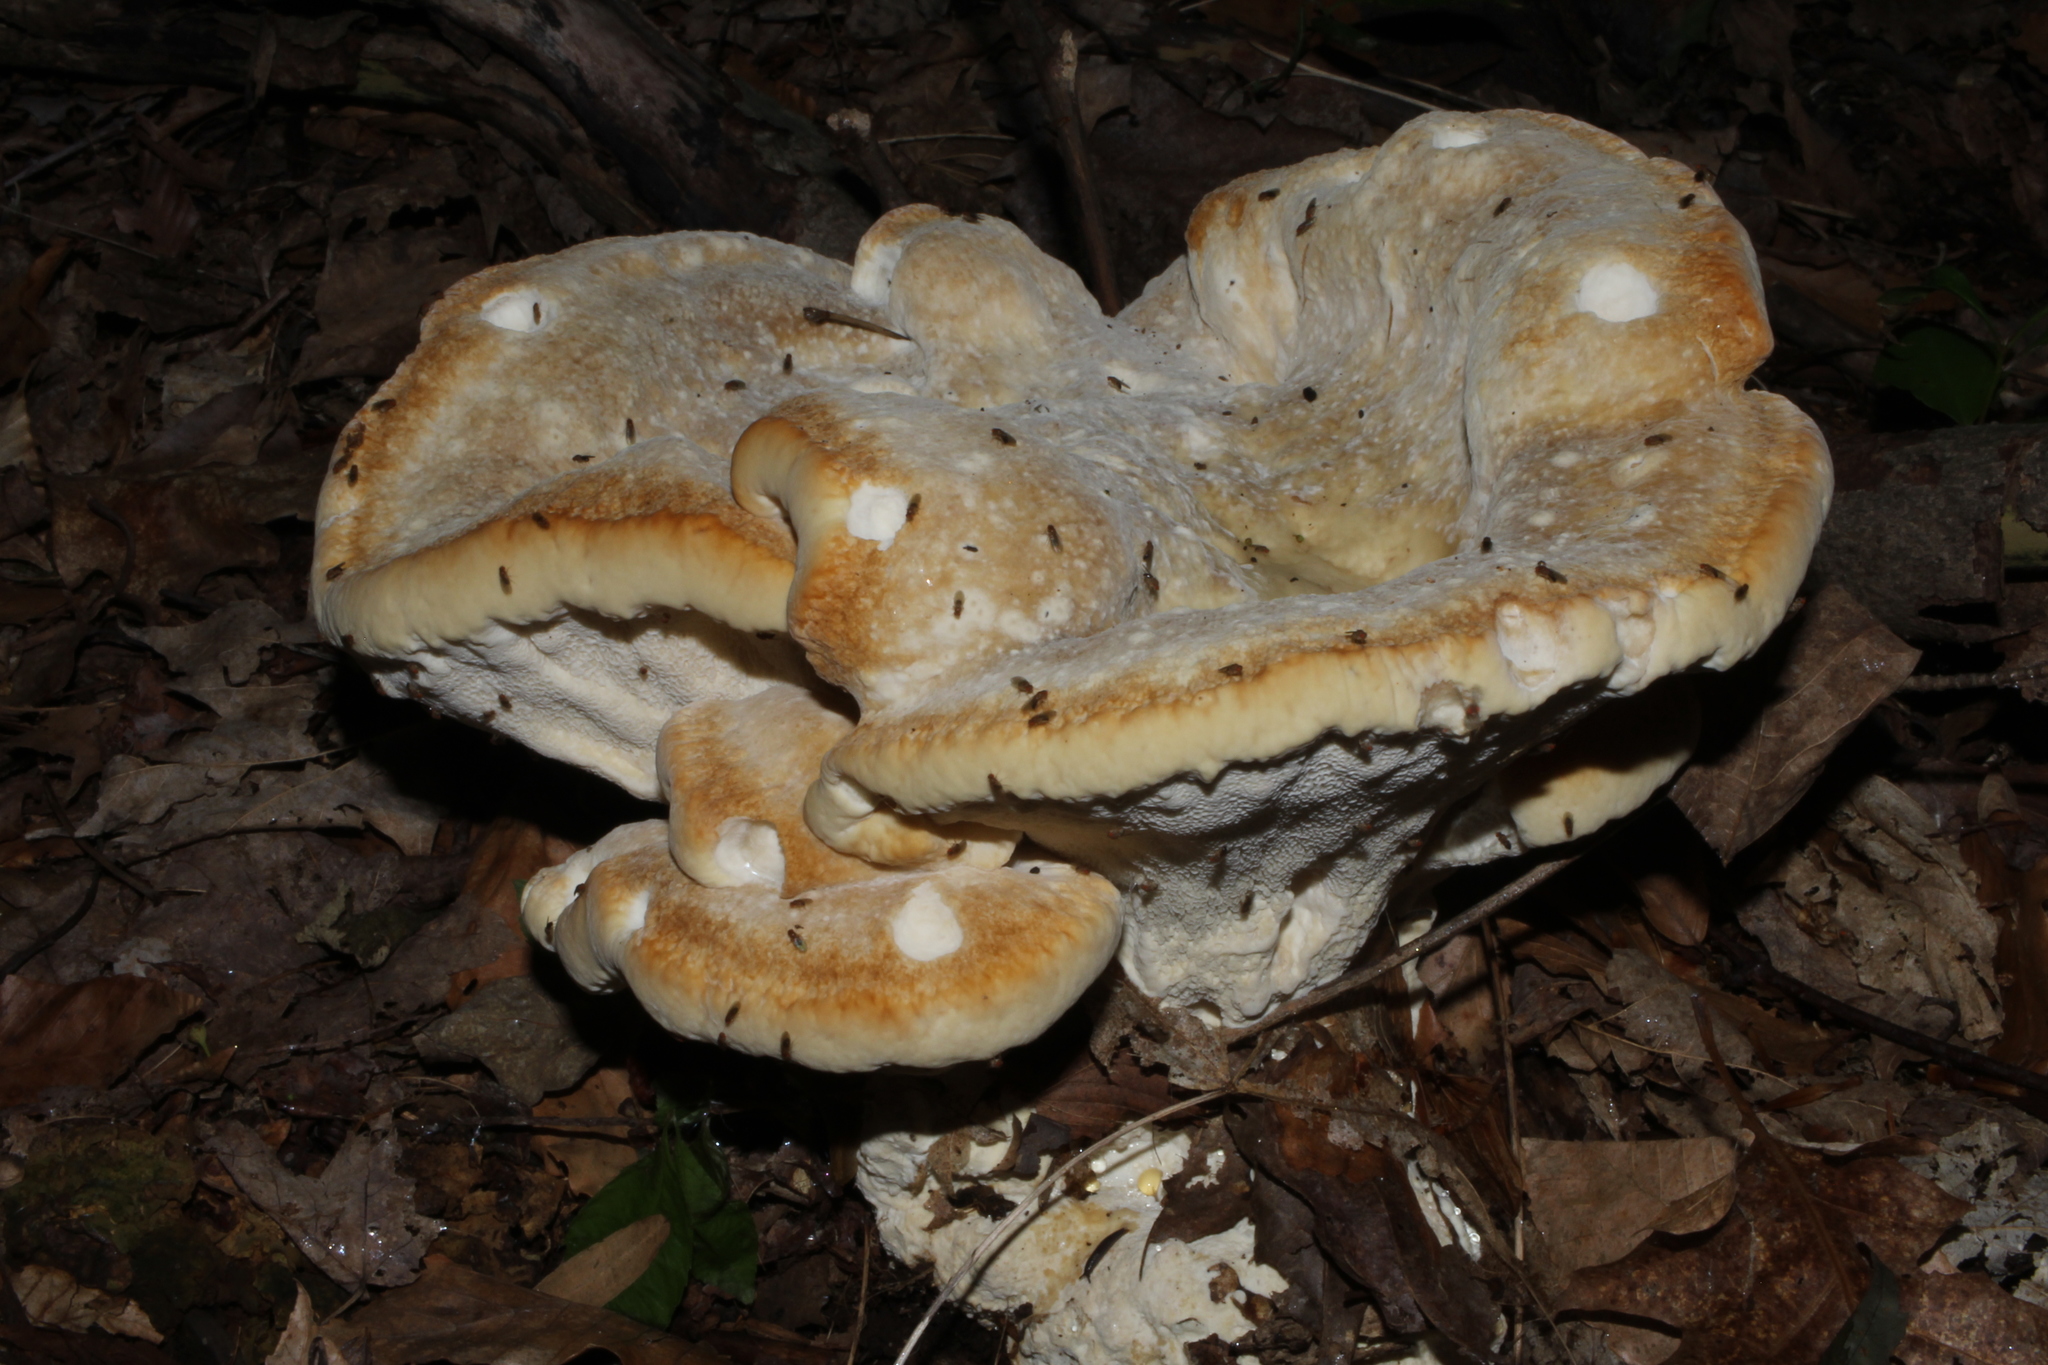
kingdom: Fungi
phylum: Basidiomycota
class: Agaricomycetes
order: Russulales
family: Bondarzewiaceae
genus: Bondarzewia
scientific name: Bondarzewia berkeleyi
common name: Berkeley's polypore
